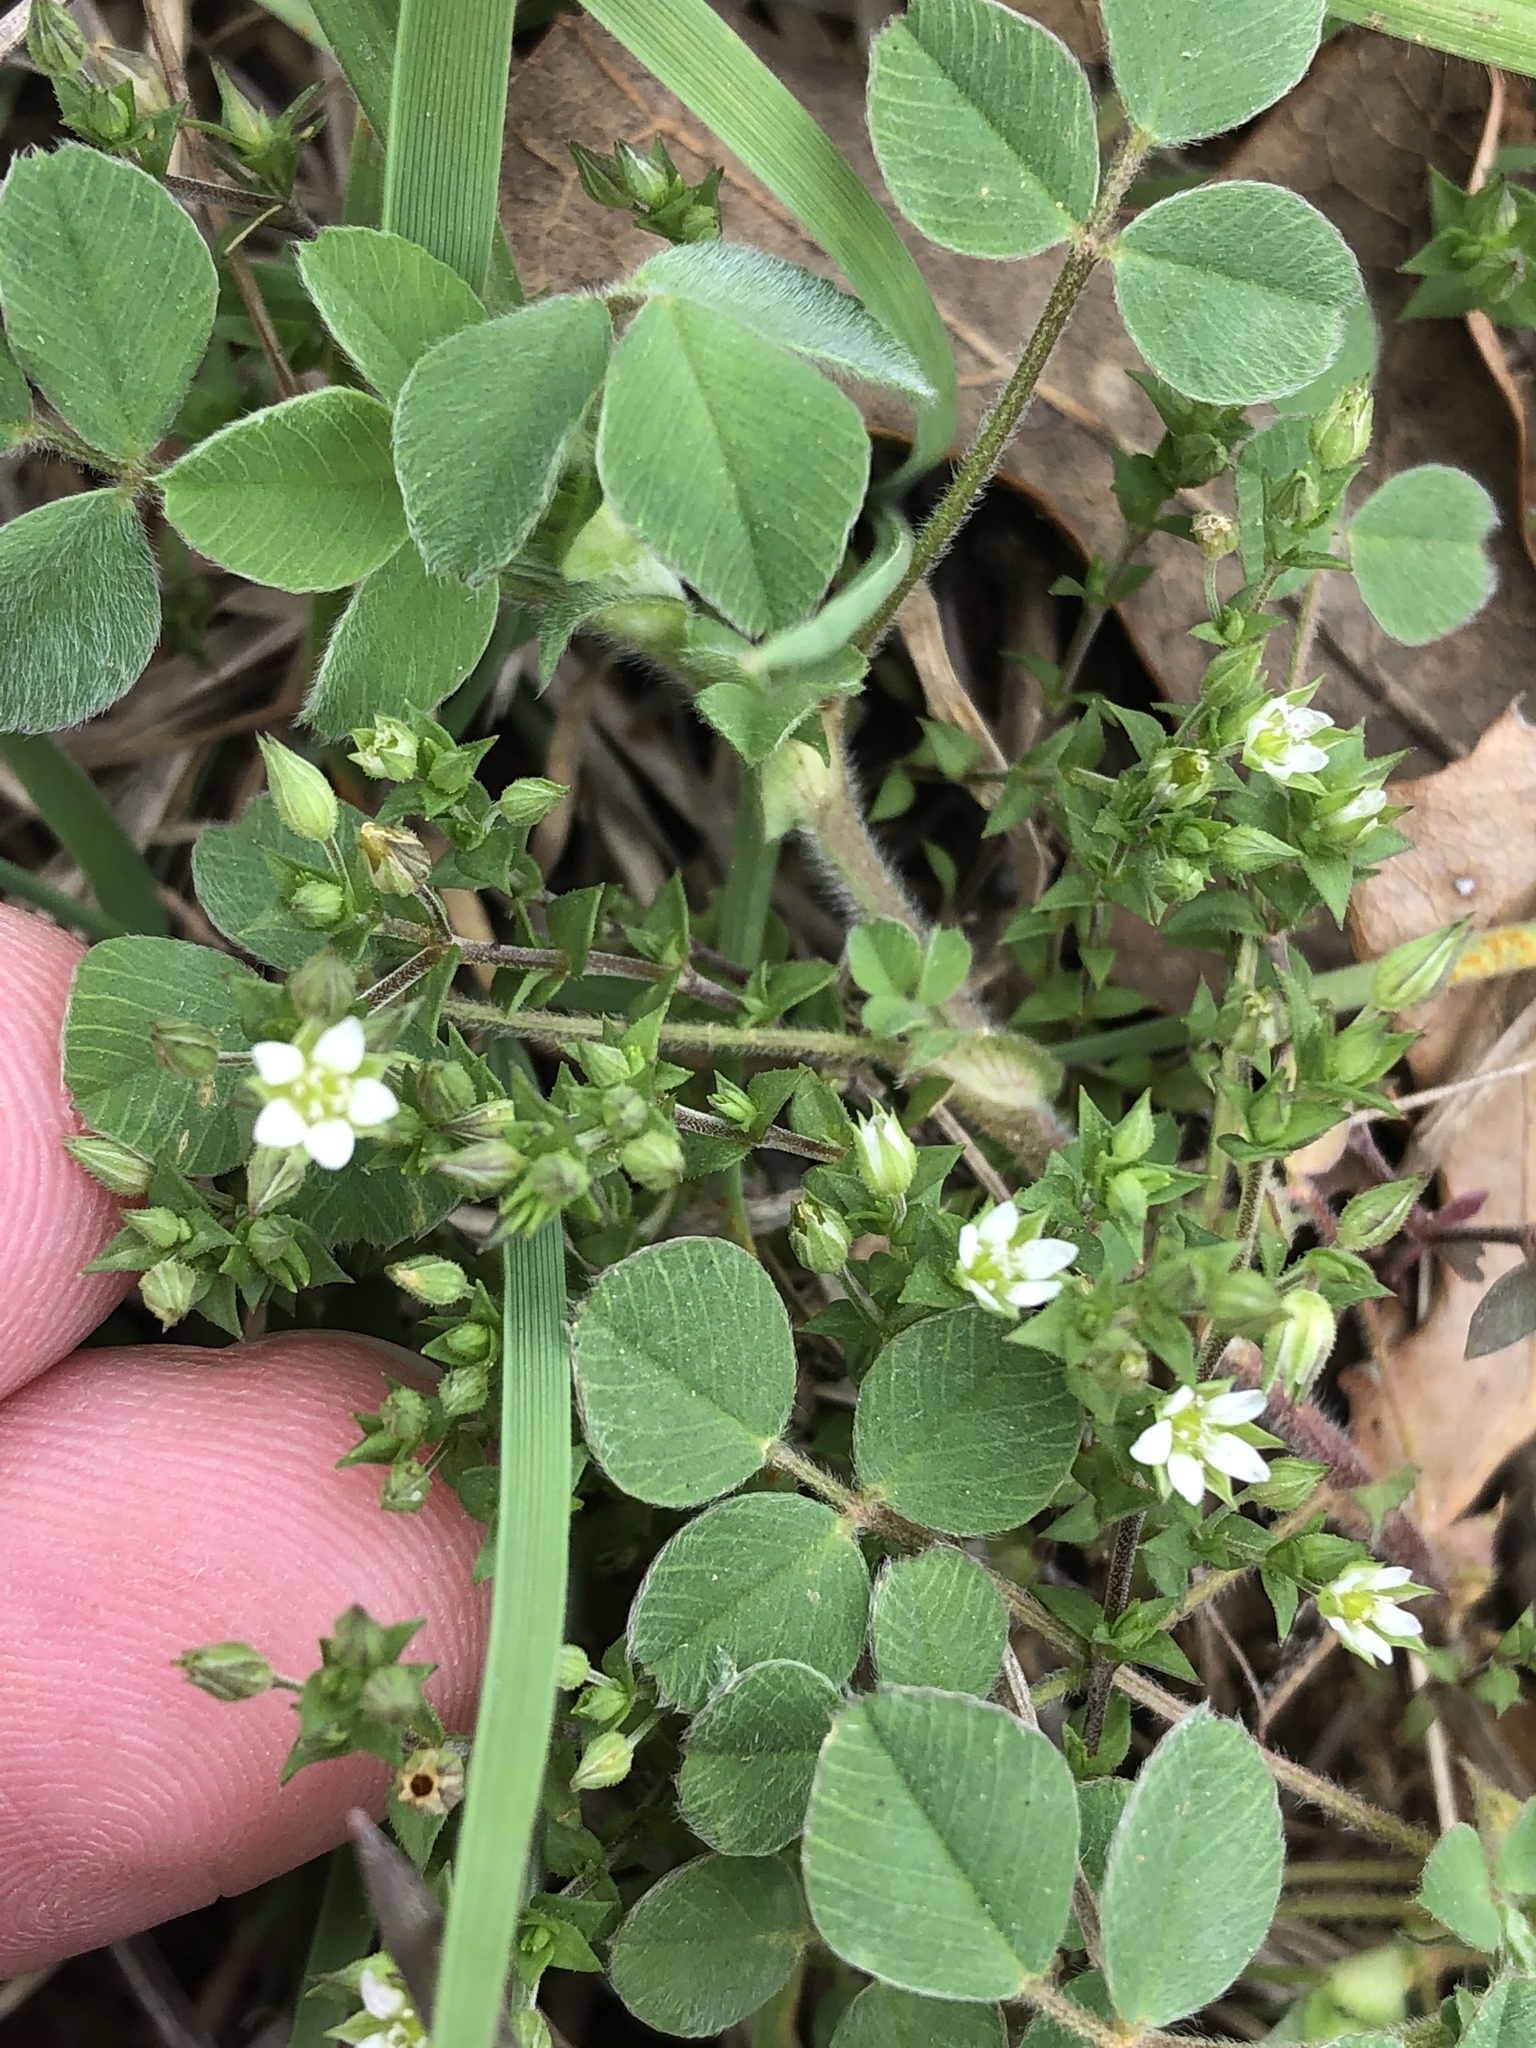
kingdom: Plantae
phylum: Tracheophyta
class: Magnoliopsida
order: Caryophyllales
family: Caryophyllaceae
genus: Arenaria
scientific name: Arenaria serpyllifolia
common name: Thyme-leaved sandwort
